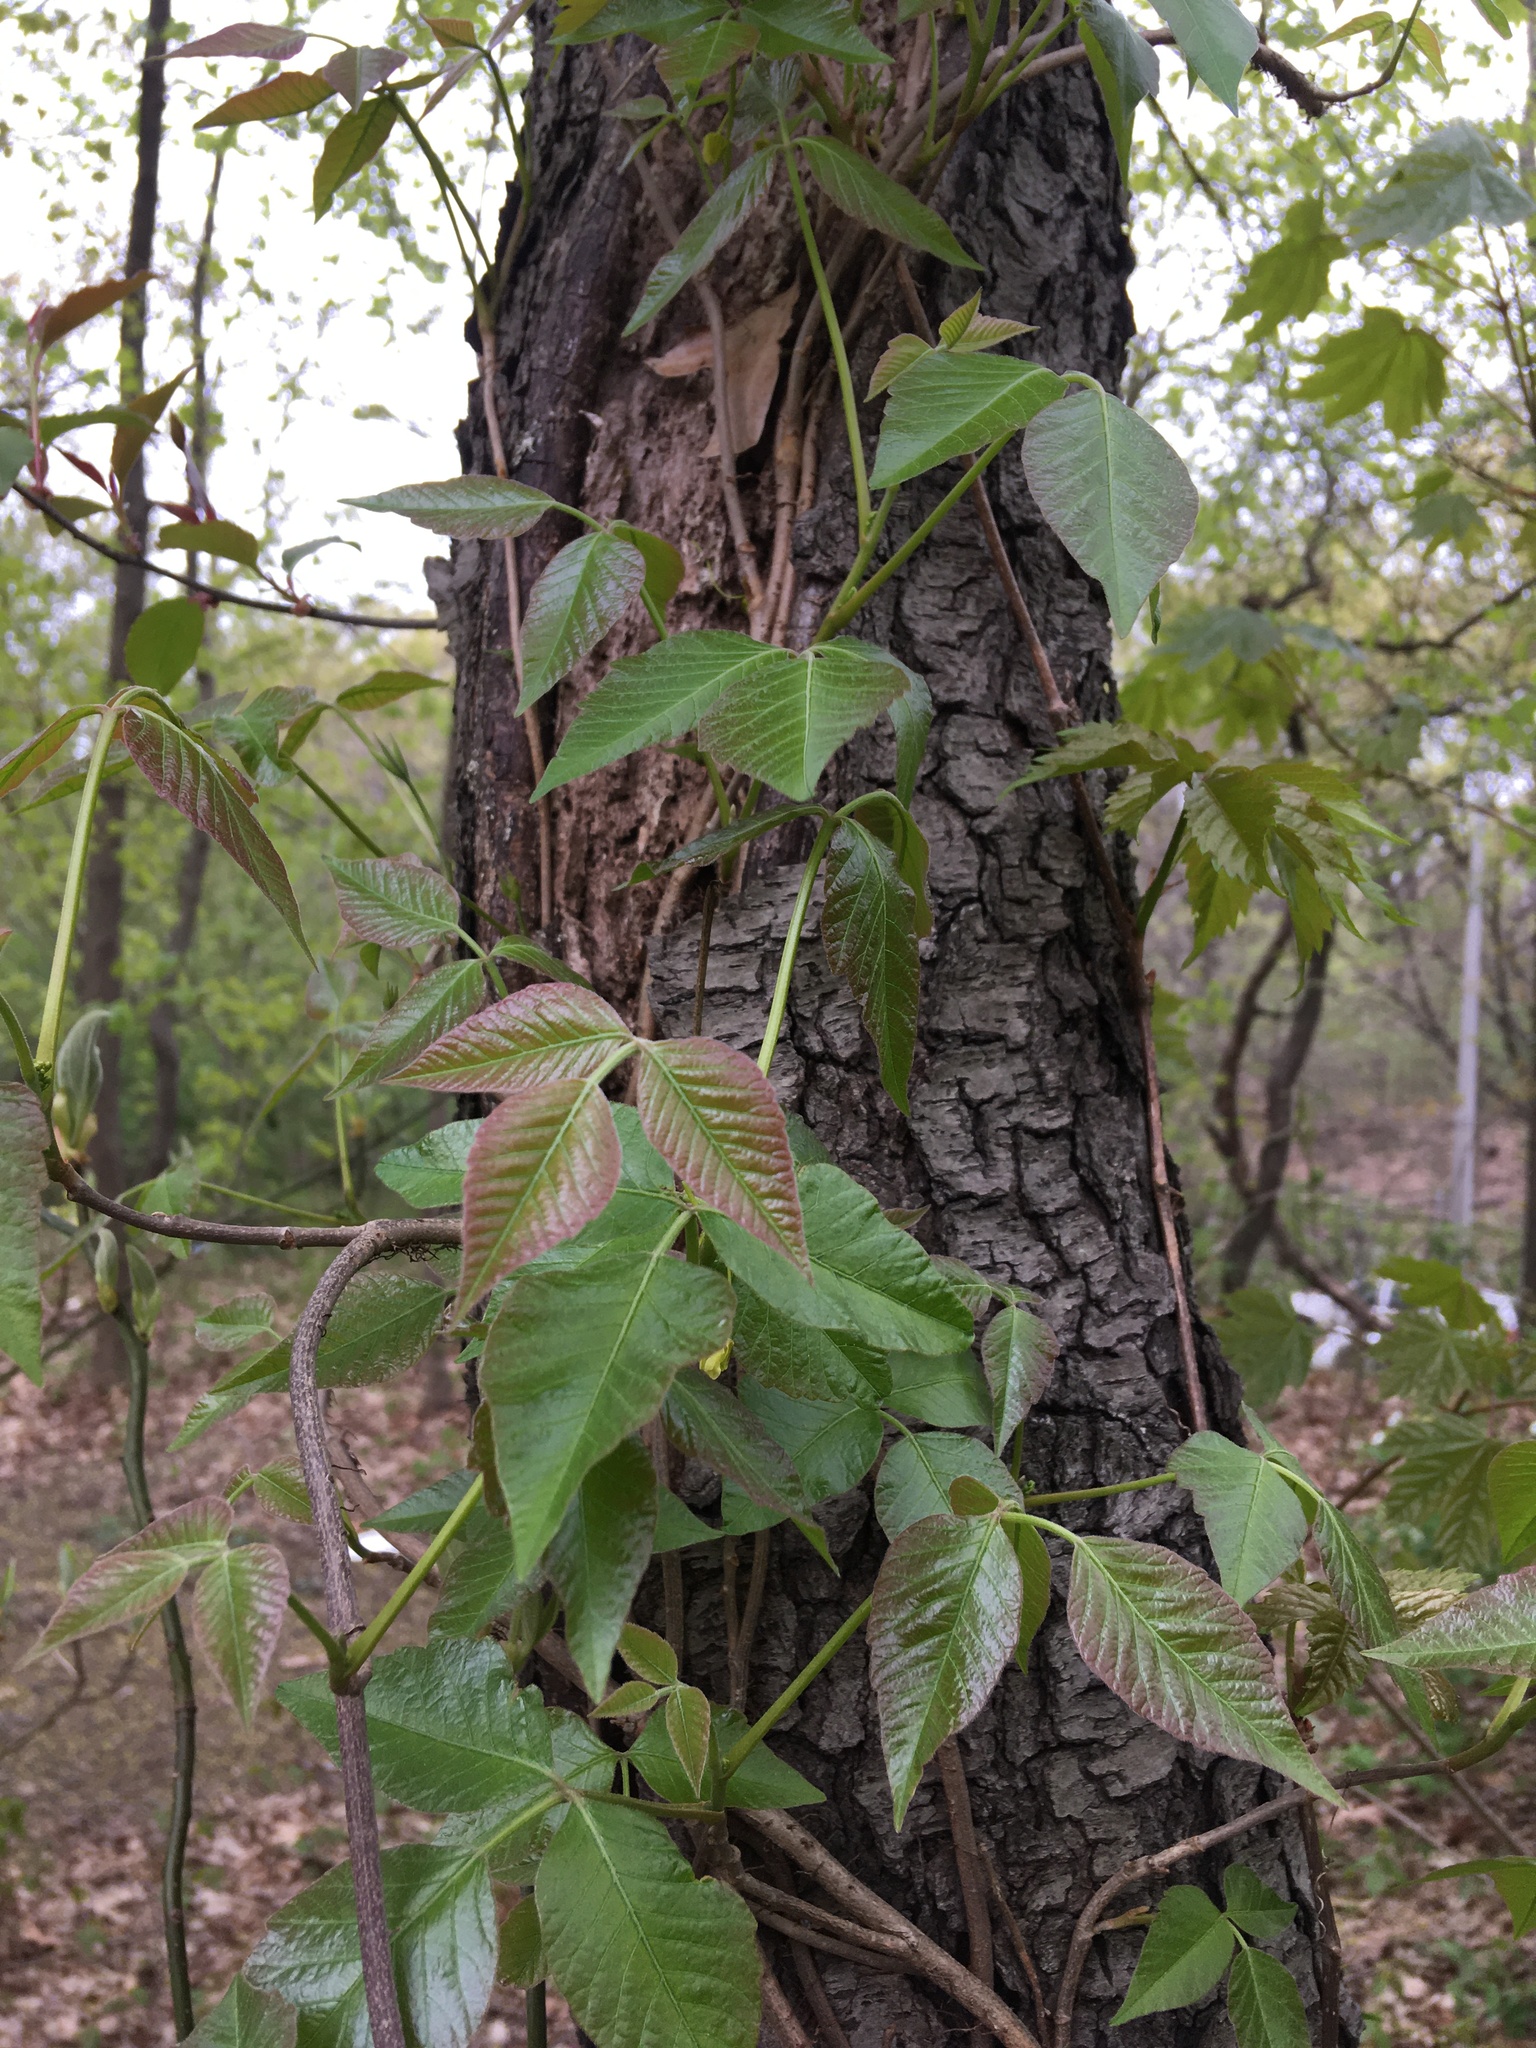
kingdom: Plantae
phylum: Tracheophyta
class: Magnoliopsida
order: Sapindales
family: Anacardiaceae
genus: Toxicodendron
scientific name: Toxicodendron radicans
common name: Poison ivy
